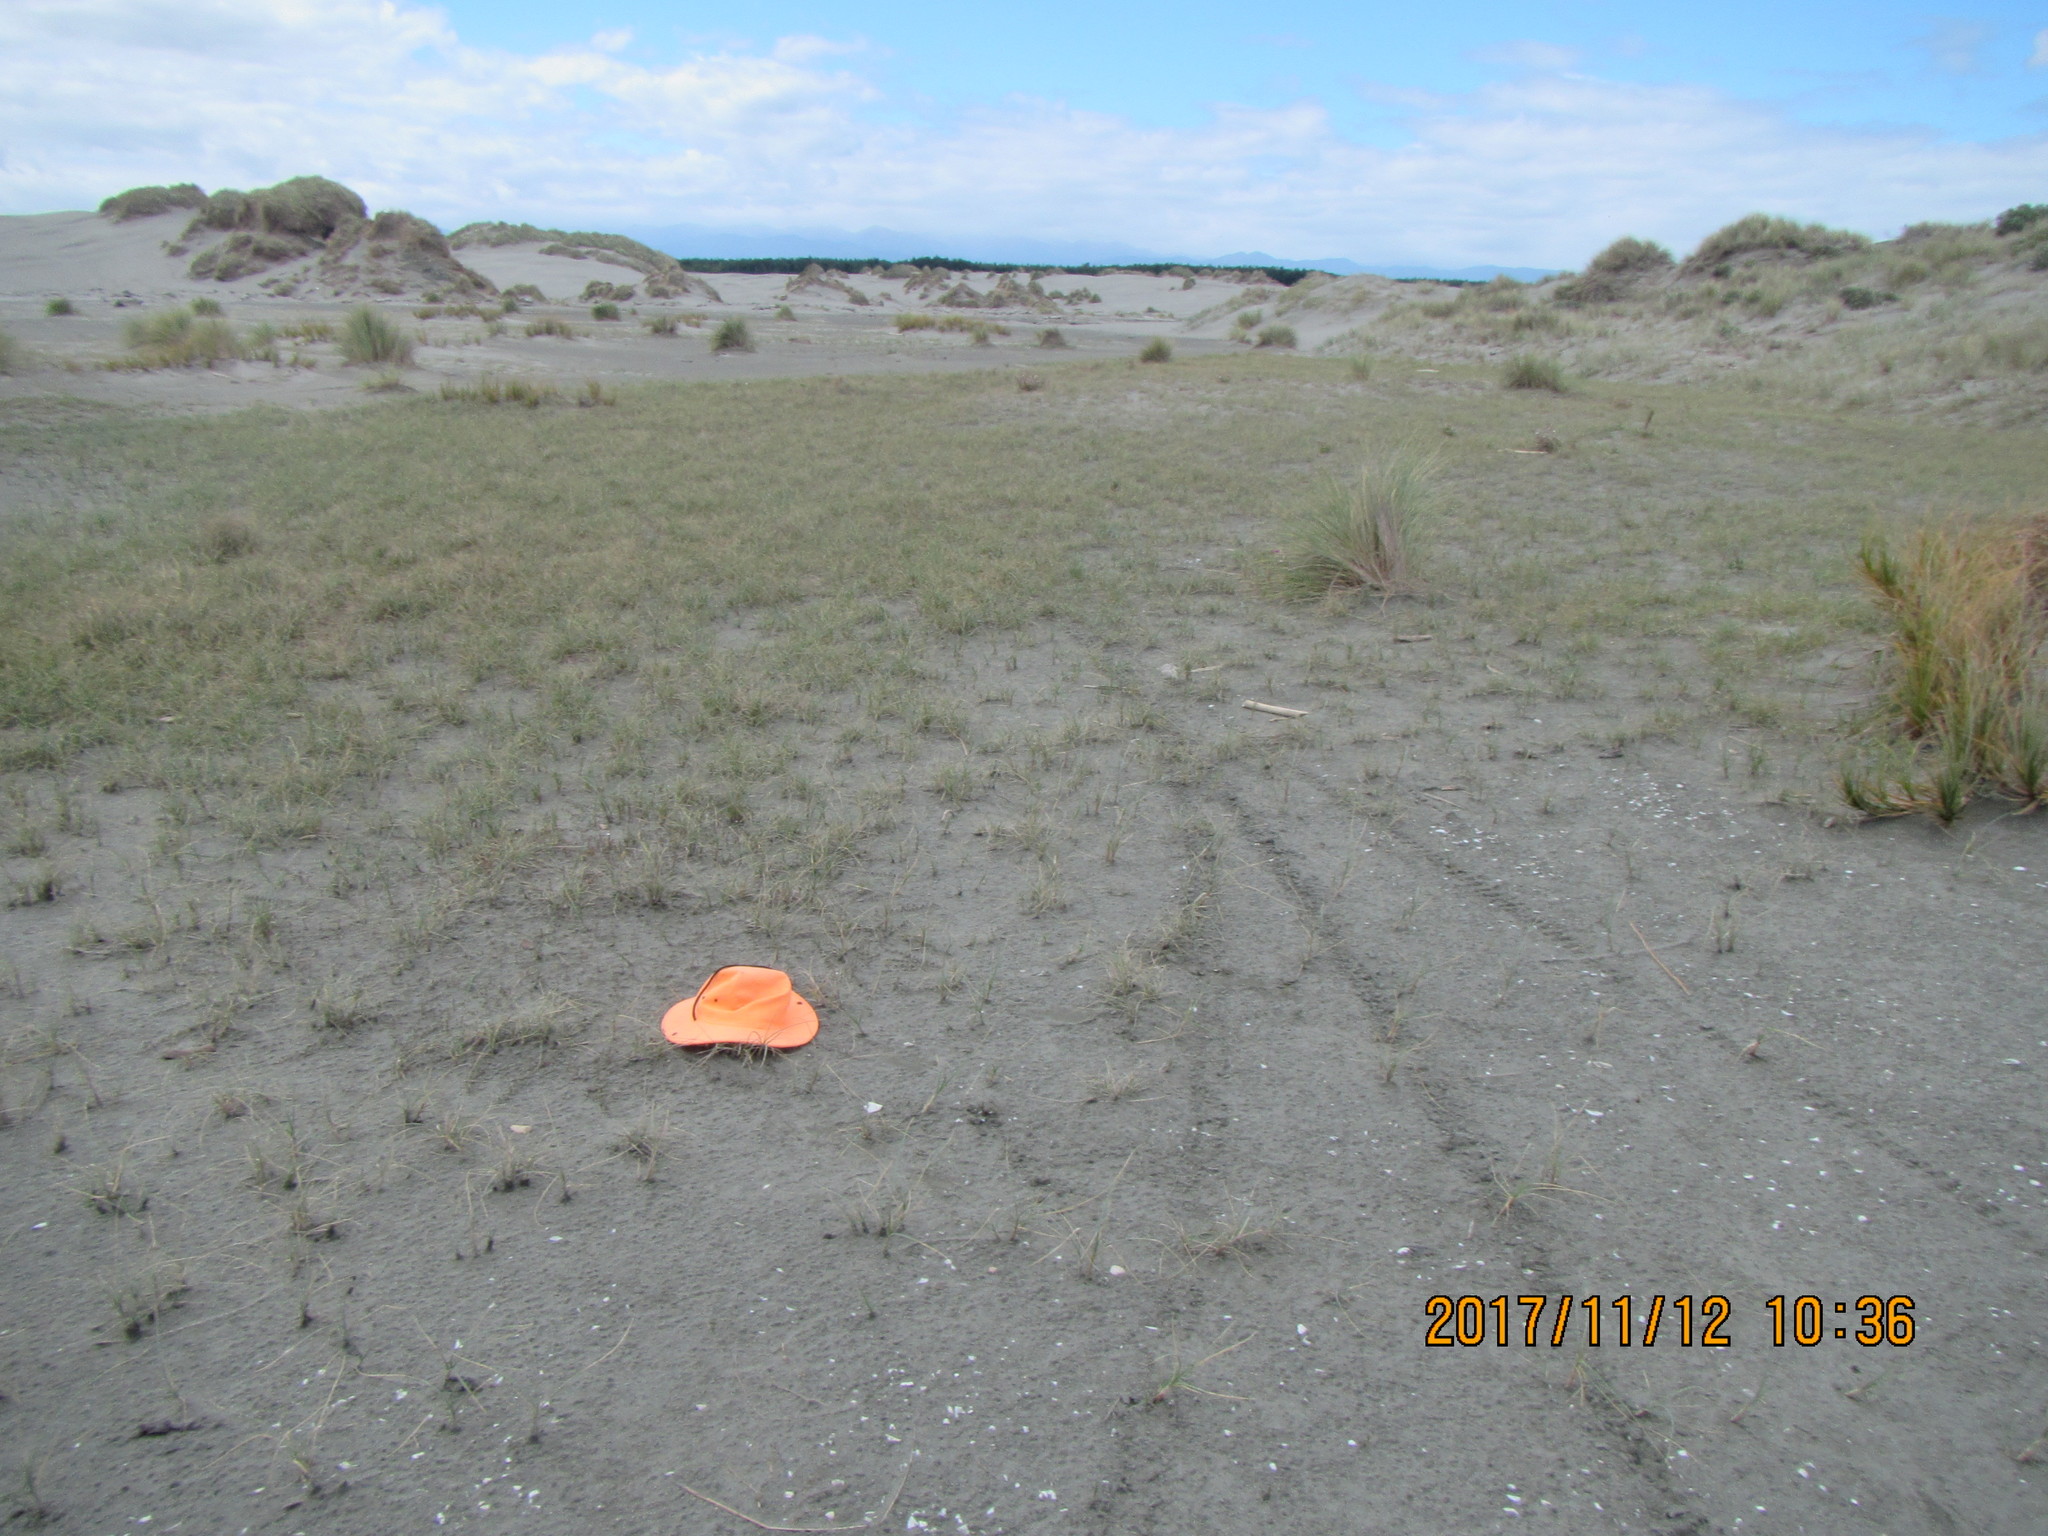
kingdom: Plantae
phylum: Tracheophyta
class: Magnoliopsida
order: Ericales
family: Primulaceae
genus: Samolus
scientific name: Samolus repens
